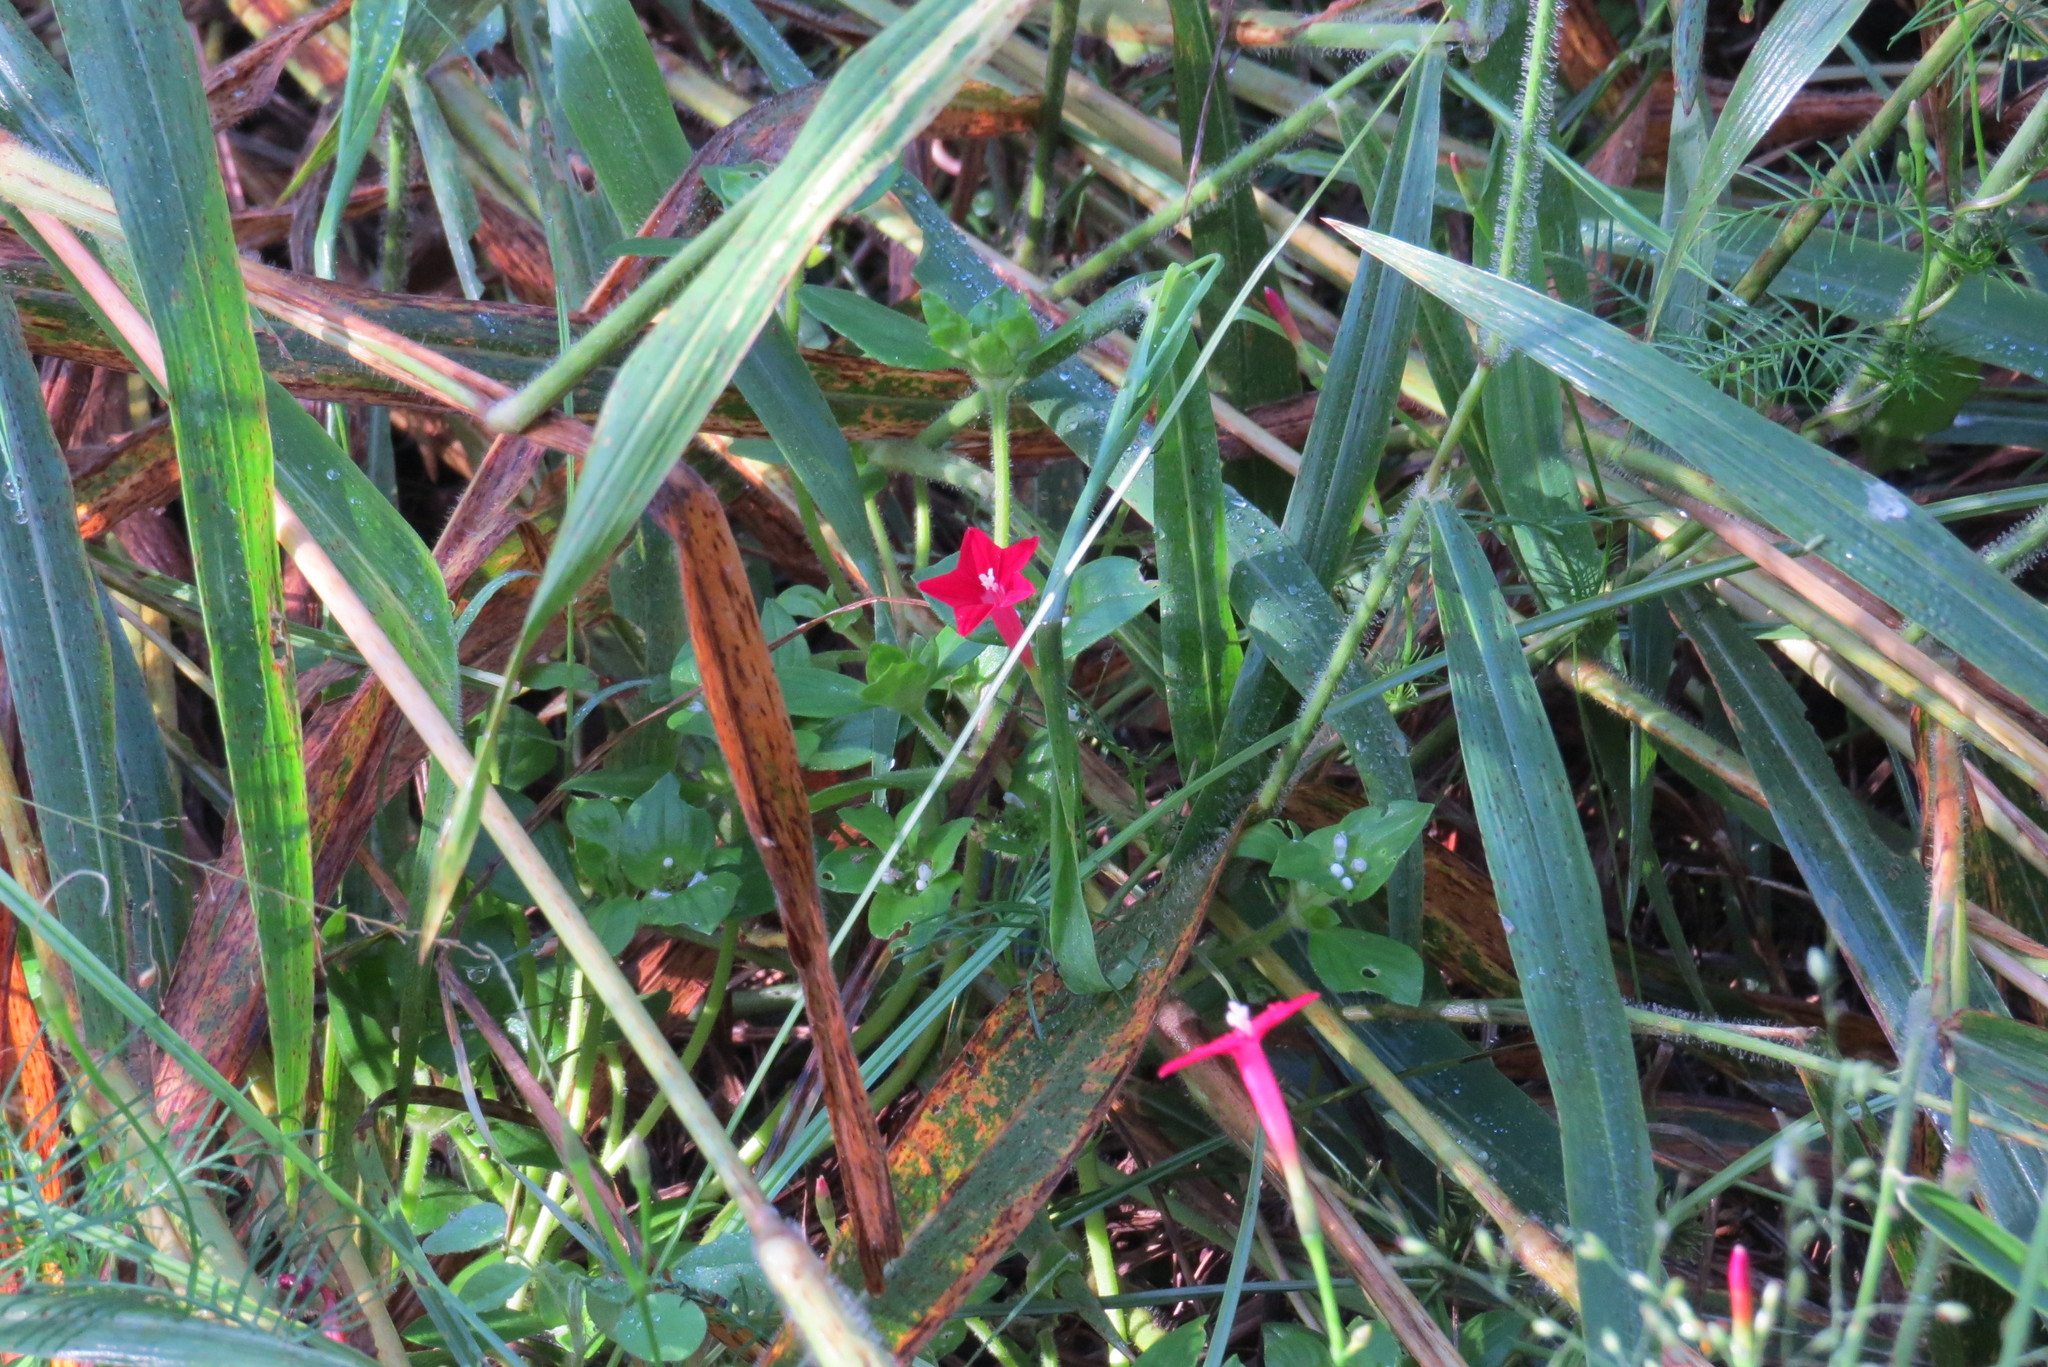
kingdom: Plantae
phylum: Tracheophyta
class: Magnoliopsida
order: Solanales
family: Convolvulaceae
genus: Ipomoea
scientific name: Ipomoea quamoclit
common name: Cypress vine
